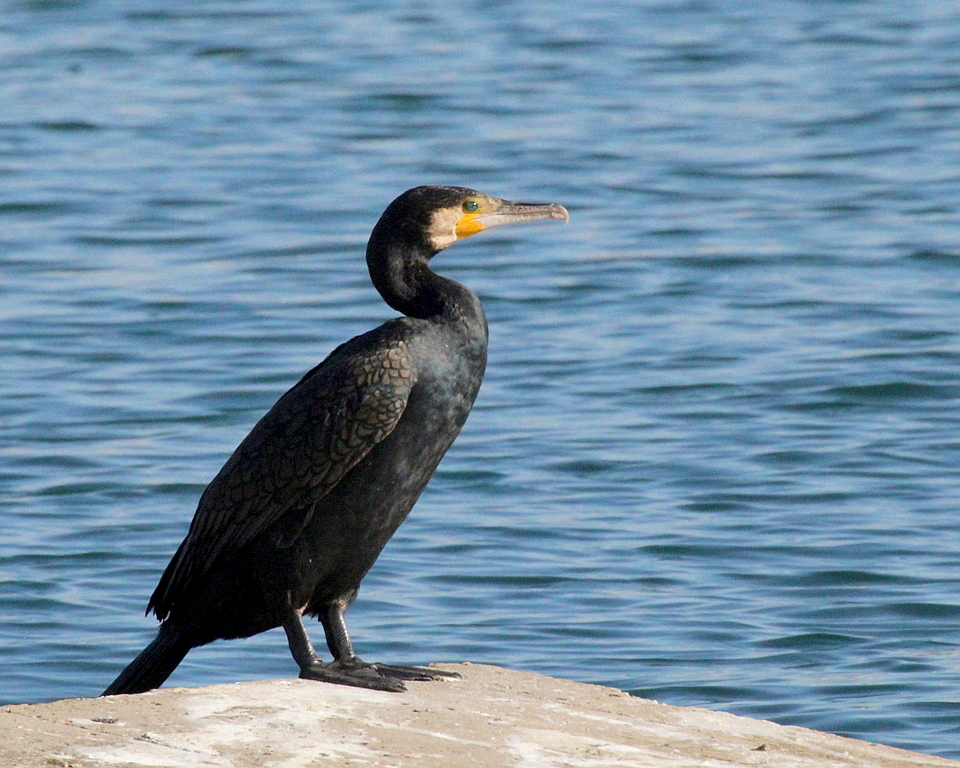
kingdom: Animalia
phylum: Chordata
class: Aves
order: Suliformes
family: Phalacrocoracidae
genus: Phalacrocorax
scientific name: Phalacrocorax carbo
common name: Great cormorant
